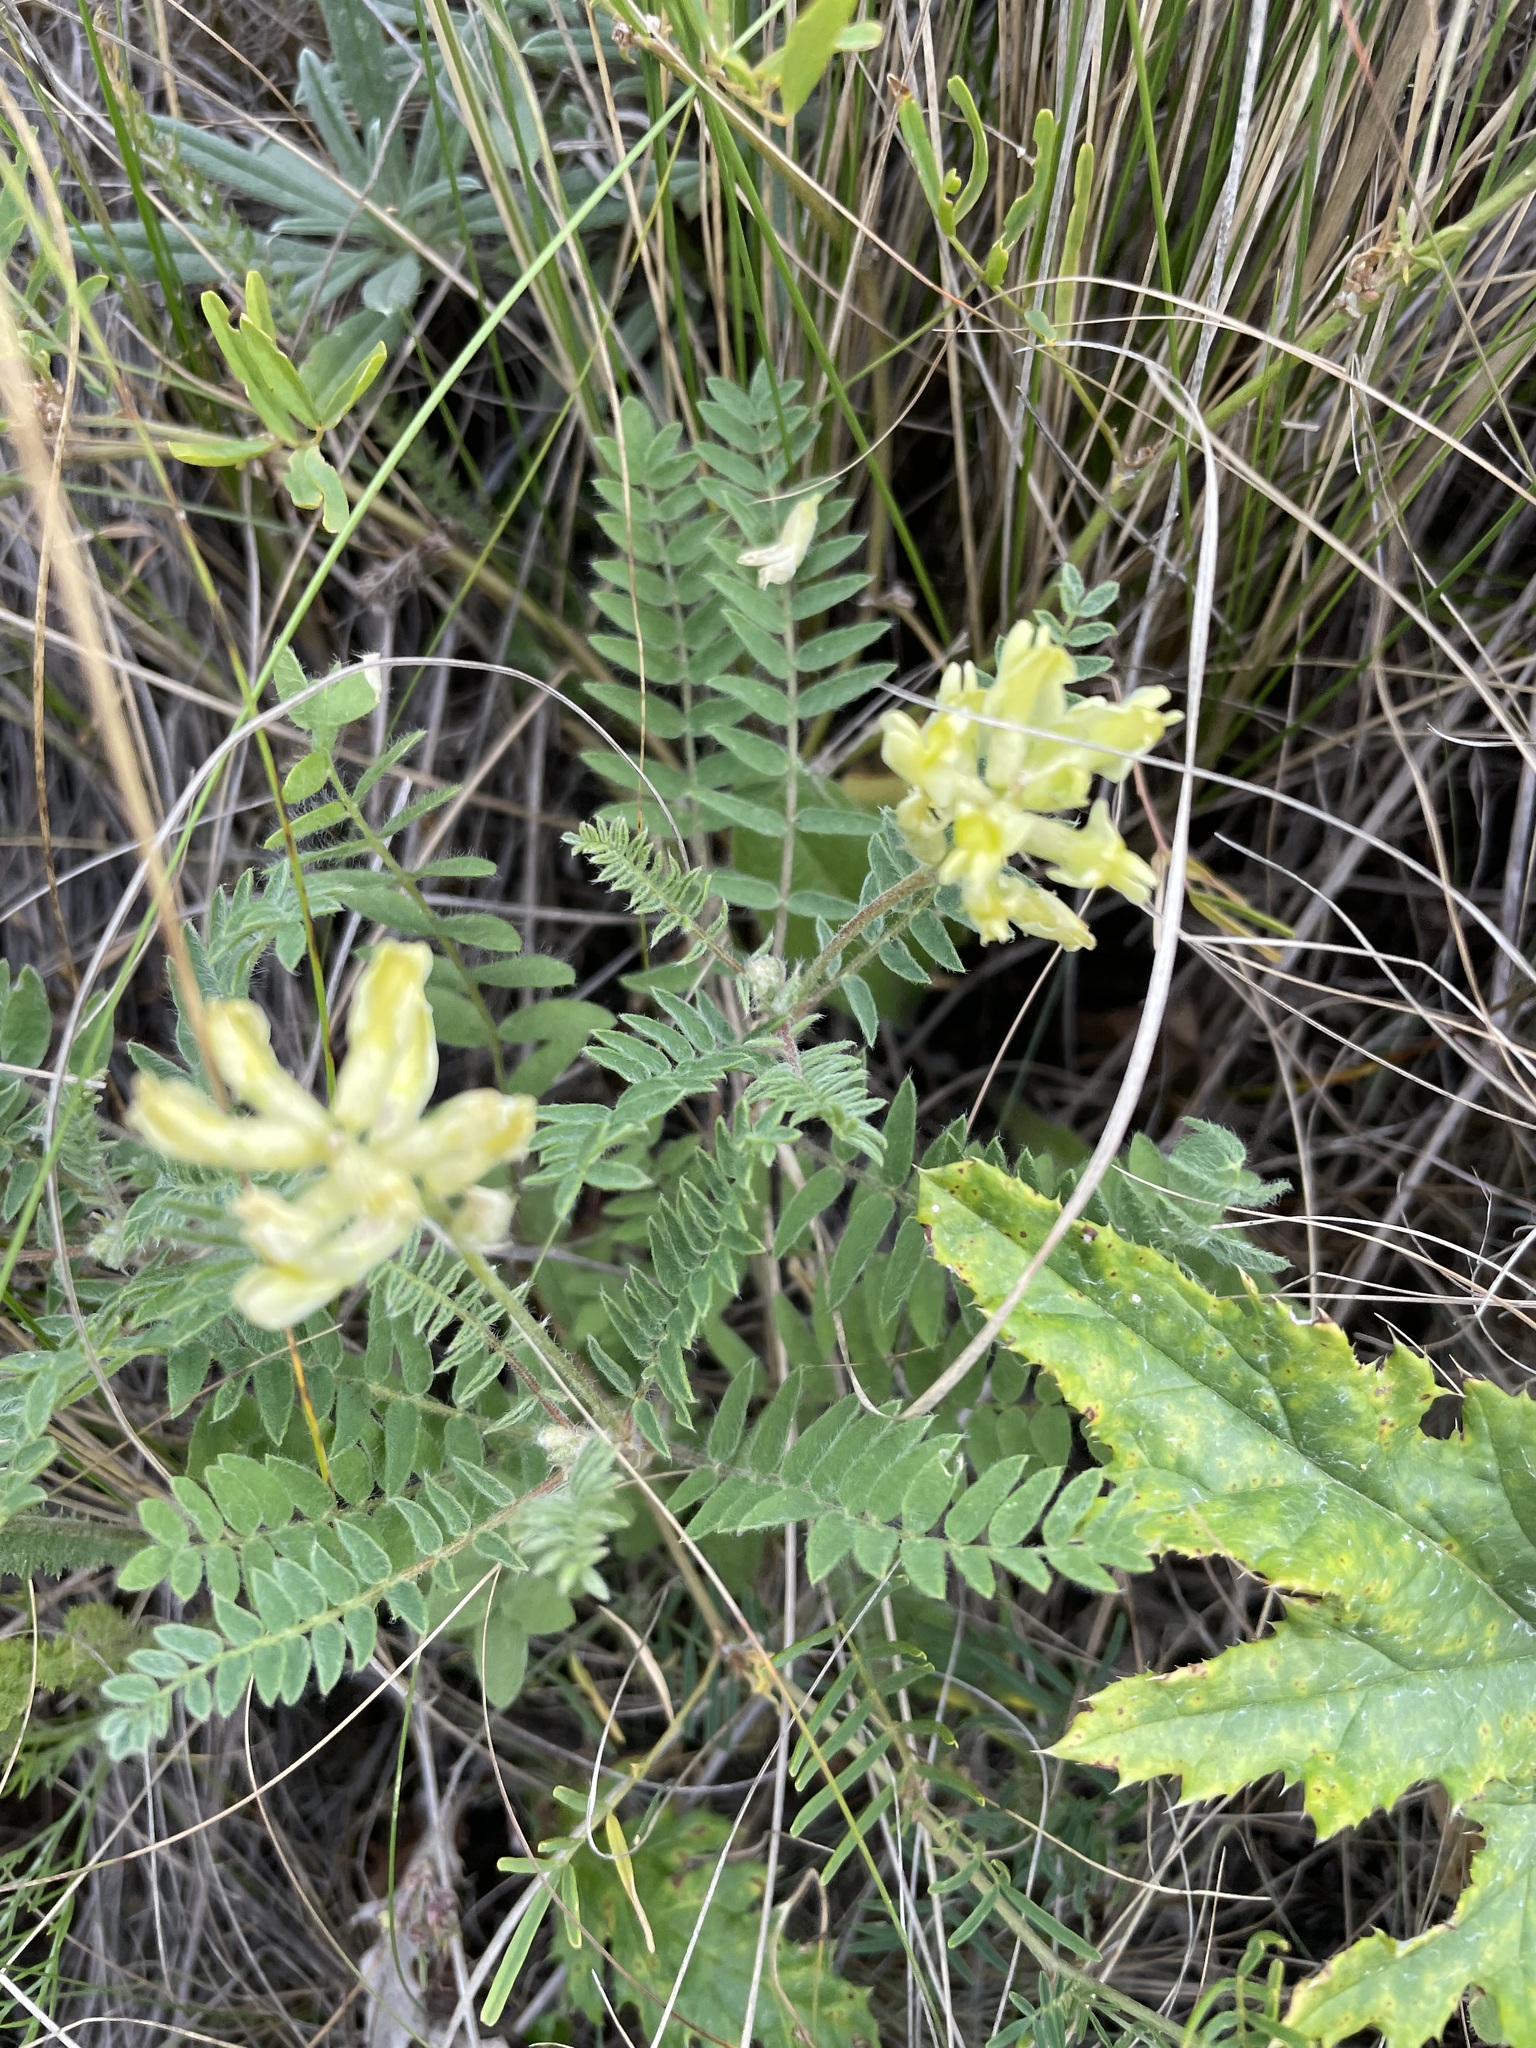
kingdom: Plantae
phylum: Tracheophyta
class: Magnoliopsida
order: Fabales
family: Fabaceae
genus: Oxytropis
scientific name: Oxytropis pilosa
